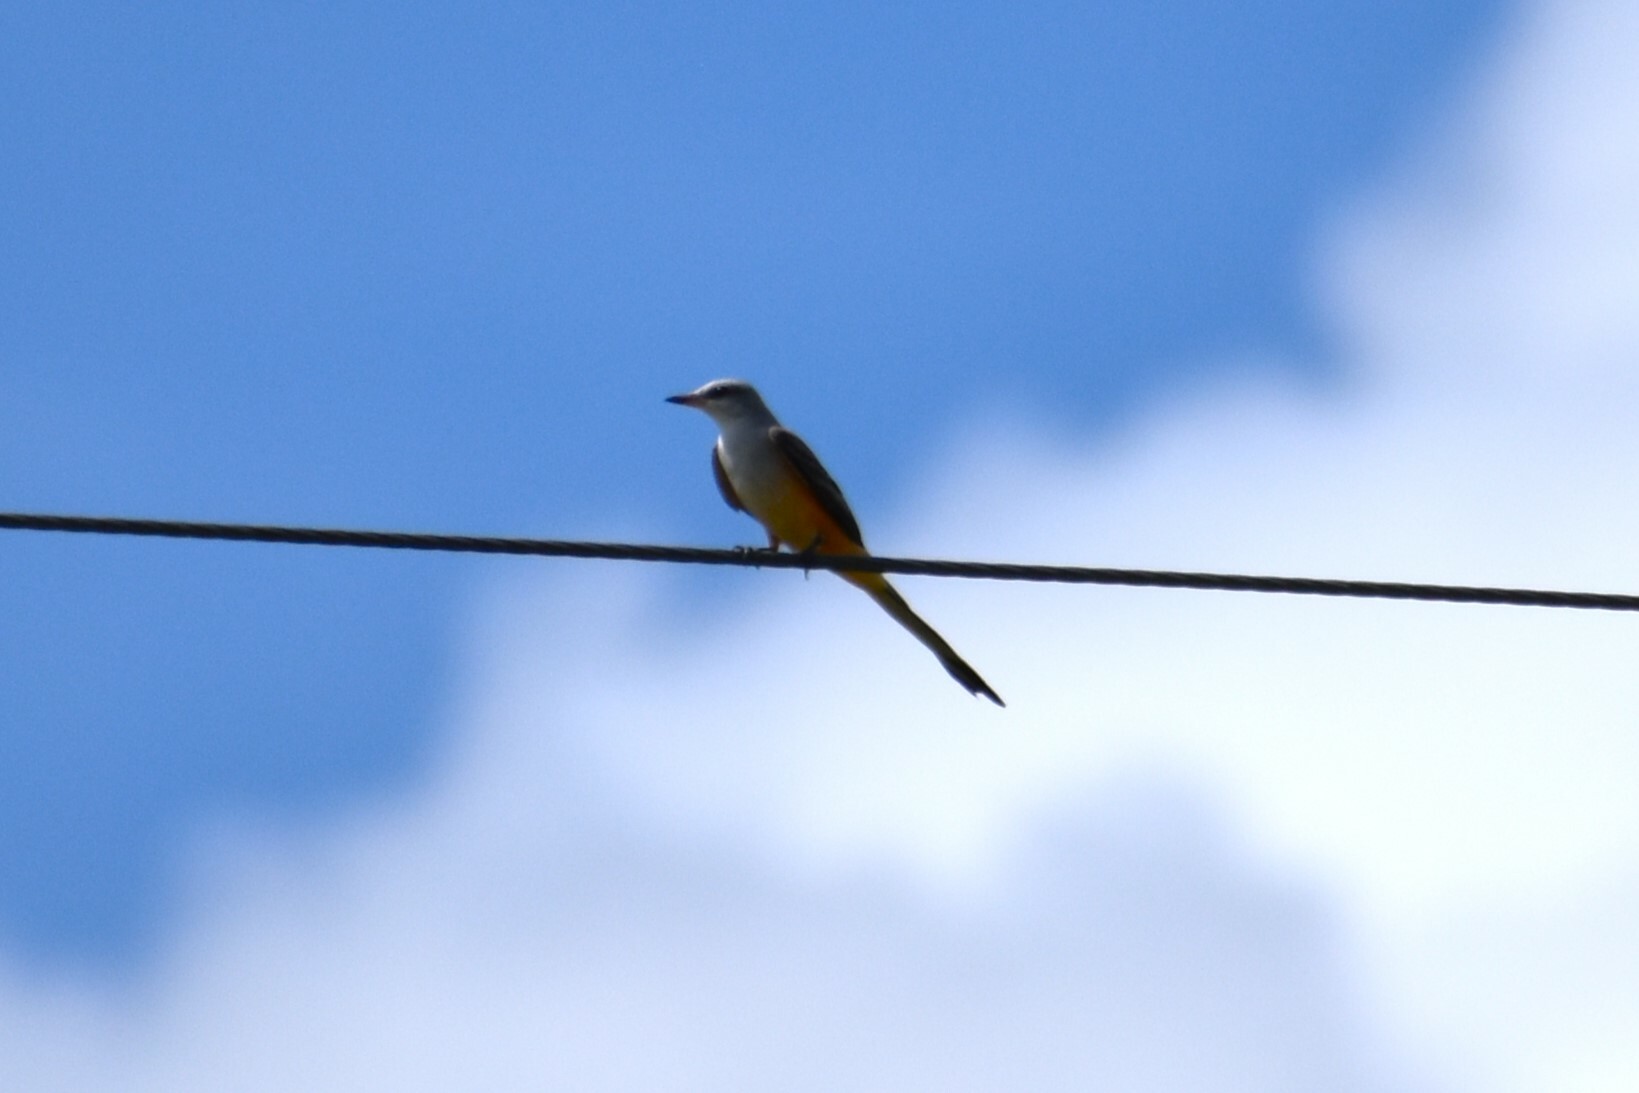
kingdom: Animalia
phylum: Chordata
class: Aves
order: Passeriformes
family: Tyrannidae
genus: Tyrannus
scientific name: Tyrannus forficatus
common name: Scissor-tailed flycatcher
